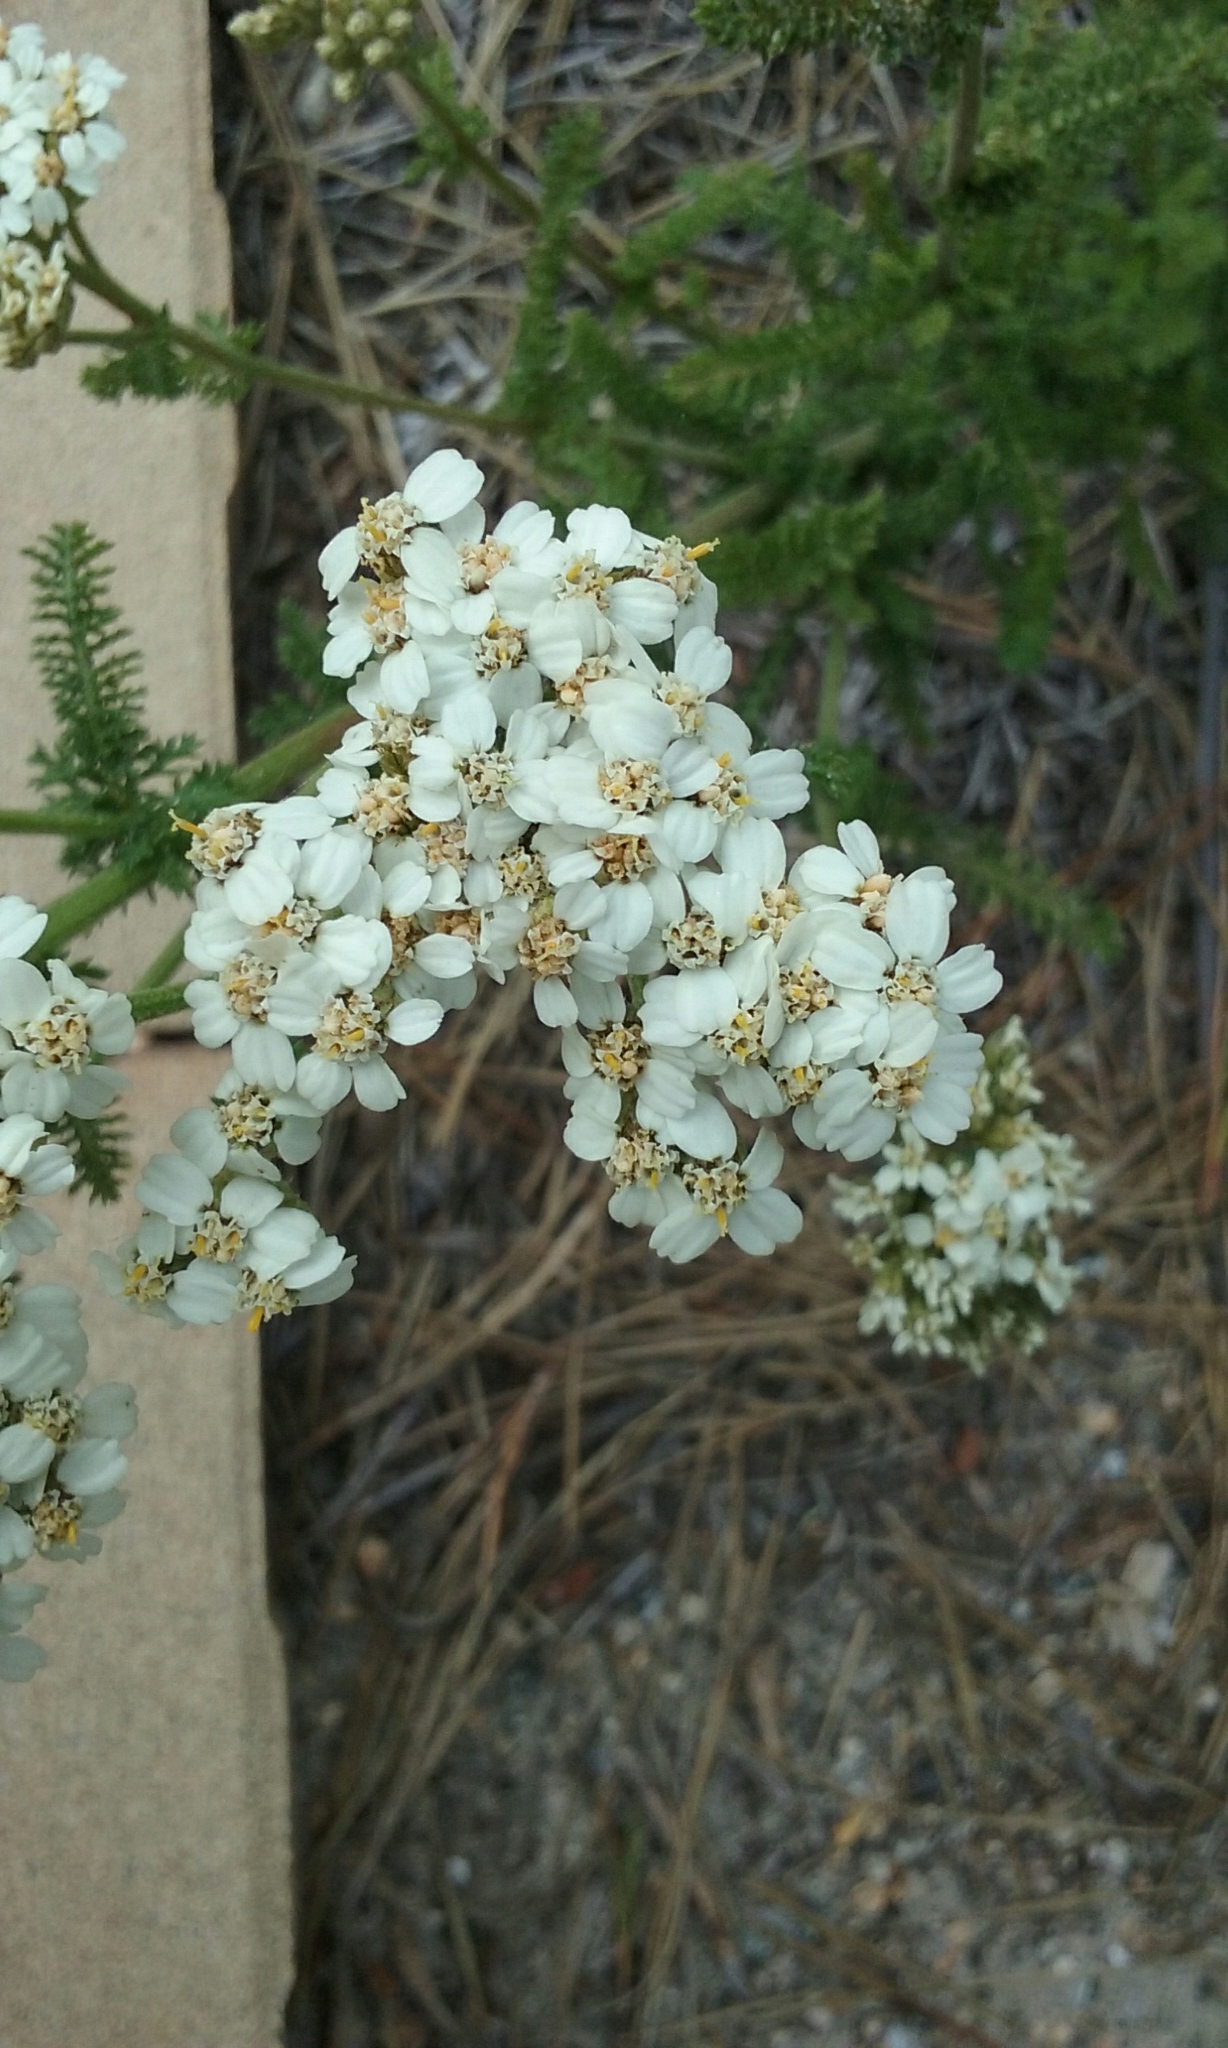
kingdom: Plantae
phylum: Tracheophyta
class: Magnoliopsida
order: Asterales
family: Asteraceae
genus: Achillea
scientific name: Achillea millefolium
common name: Yarrow
